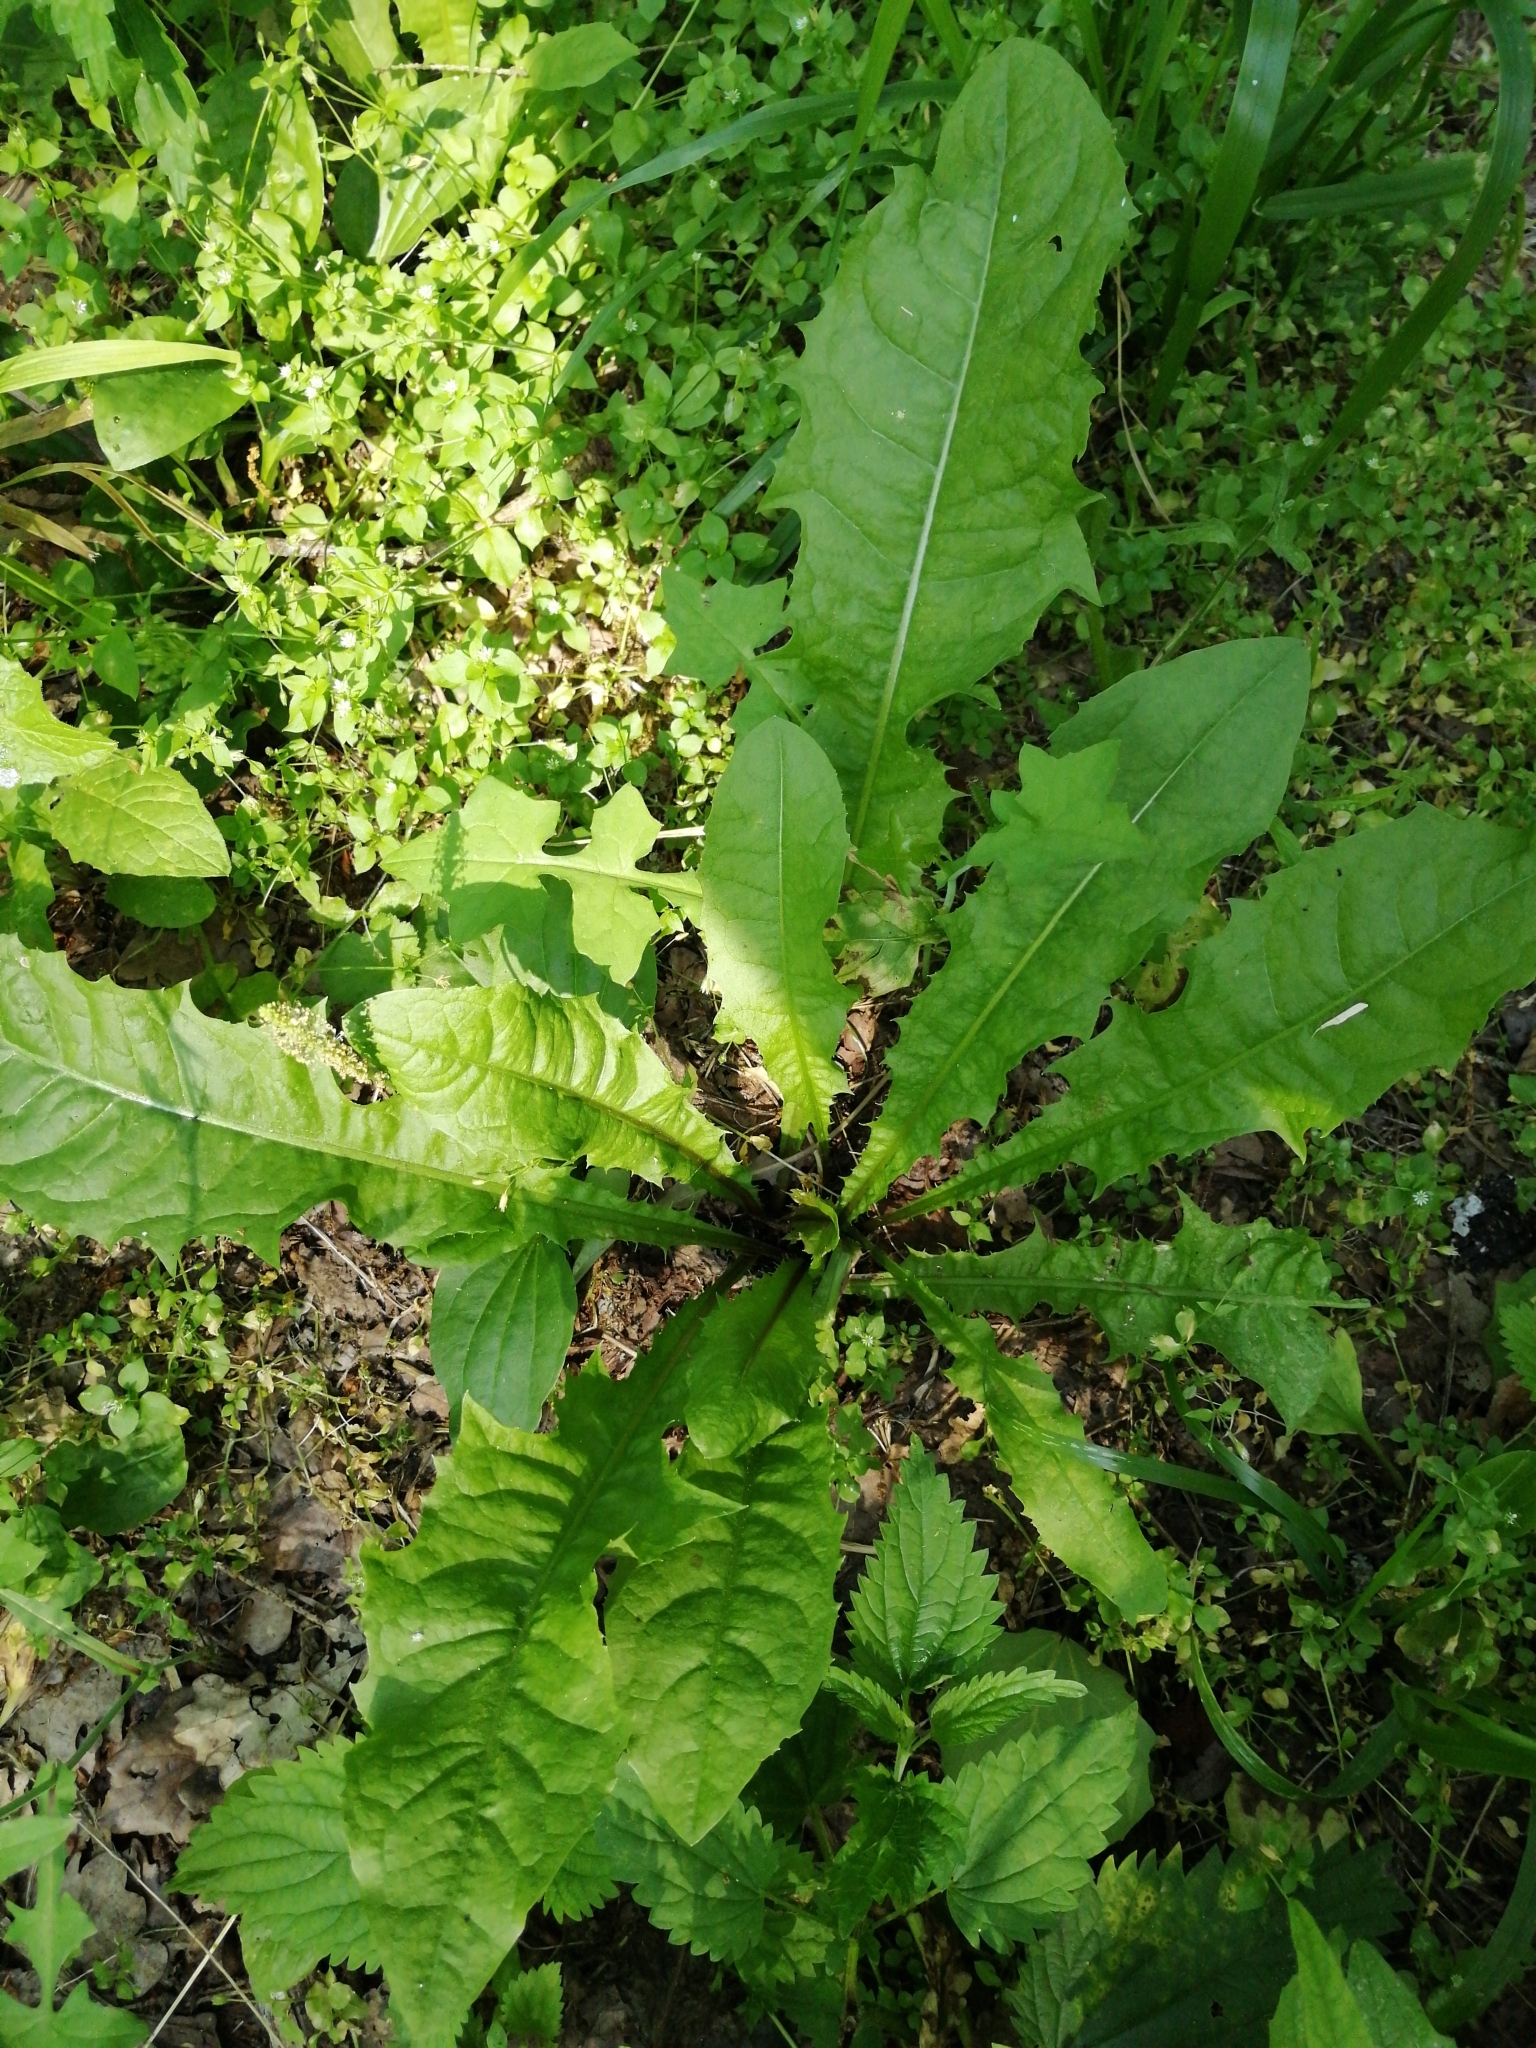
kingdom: Plantae
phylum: Tracheophyta
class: Magnoliopsida
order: Asterales
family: Asteraceae
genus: Taraxacum
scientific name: Taraxacum officinale
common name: Common dandelion
